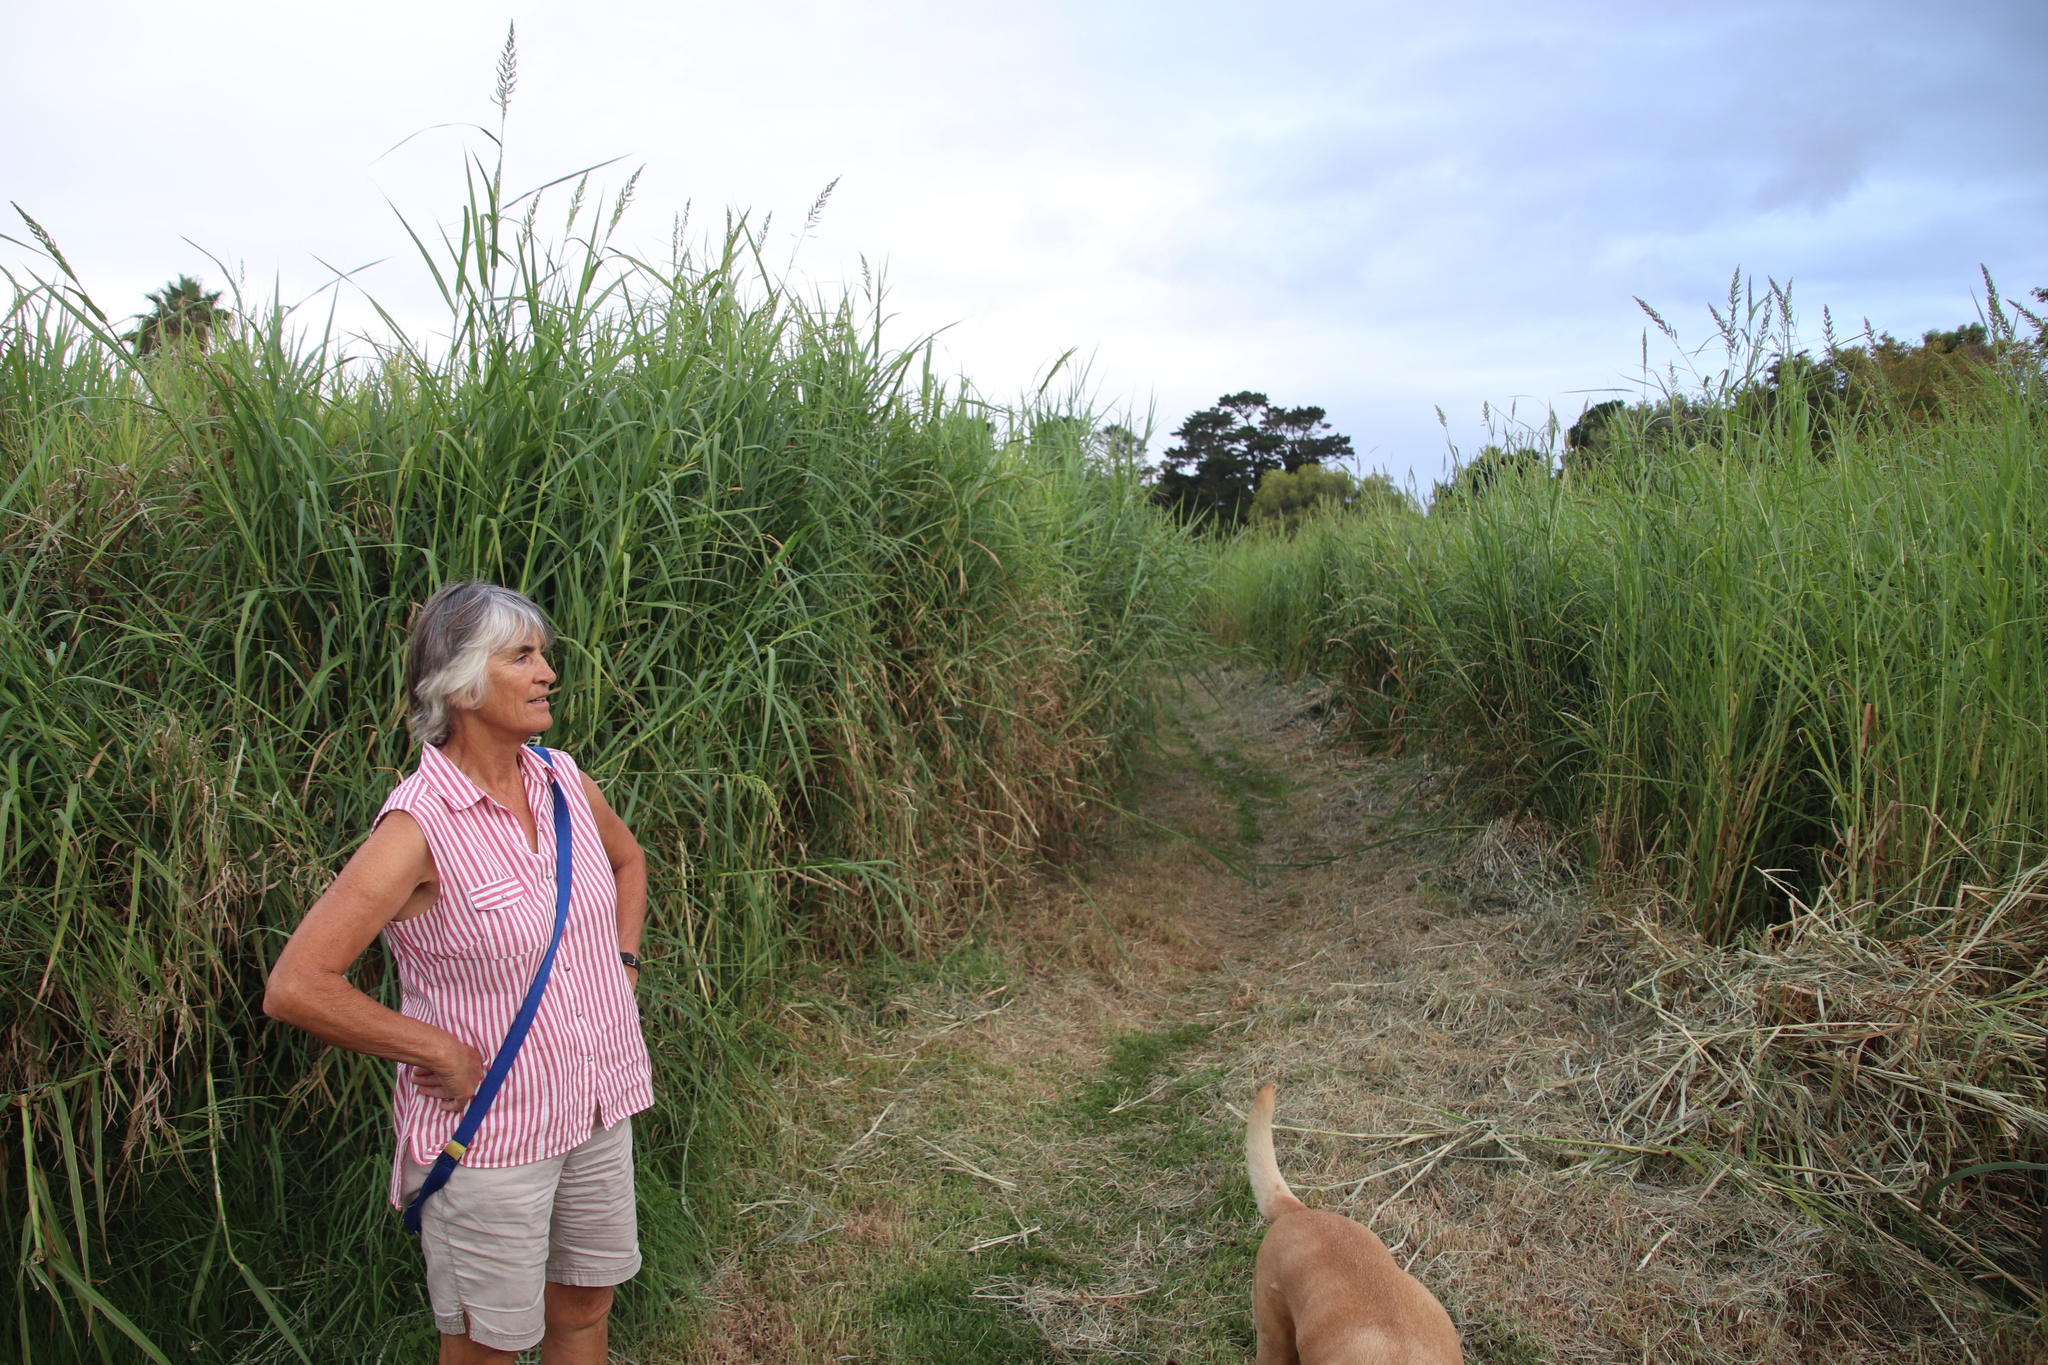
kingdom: Plantae
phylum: Tracheophyta
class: Liliopsida
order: Poales
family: Poaceae
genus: Echinochloa
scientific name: Echinochloa pyramidalis
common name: Antelope grass
